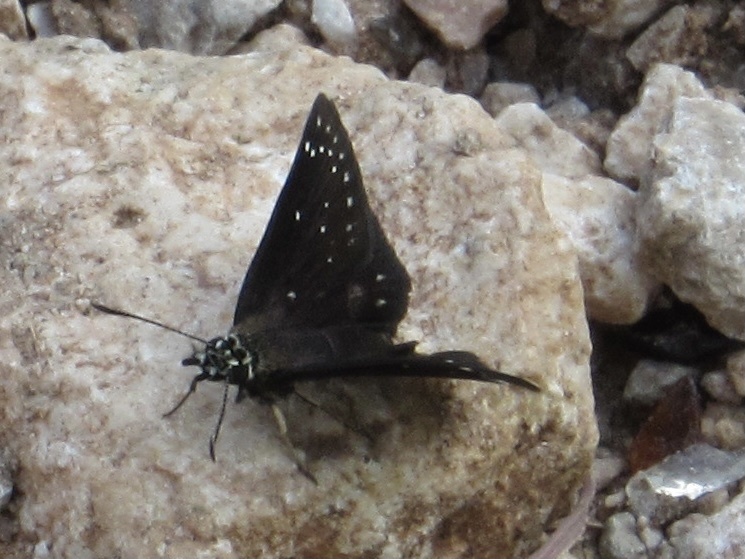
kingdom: Animalia
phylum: Arthropoda
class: Insecta
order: Lepidoptera
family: Hesperiidae
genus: Pholisora
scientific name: Pholisora catullus
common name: Common sootywing
